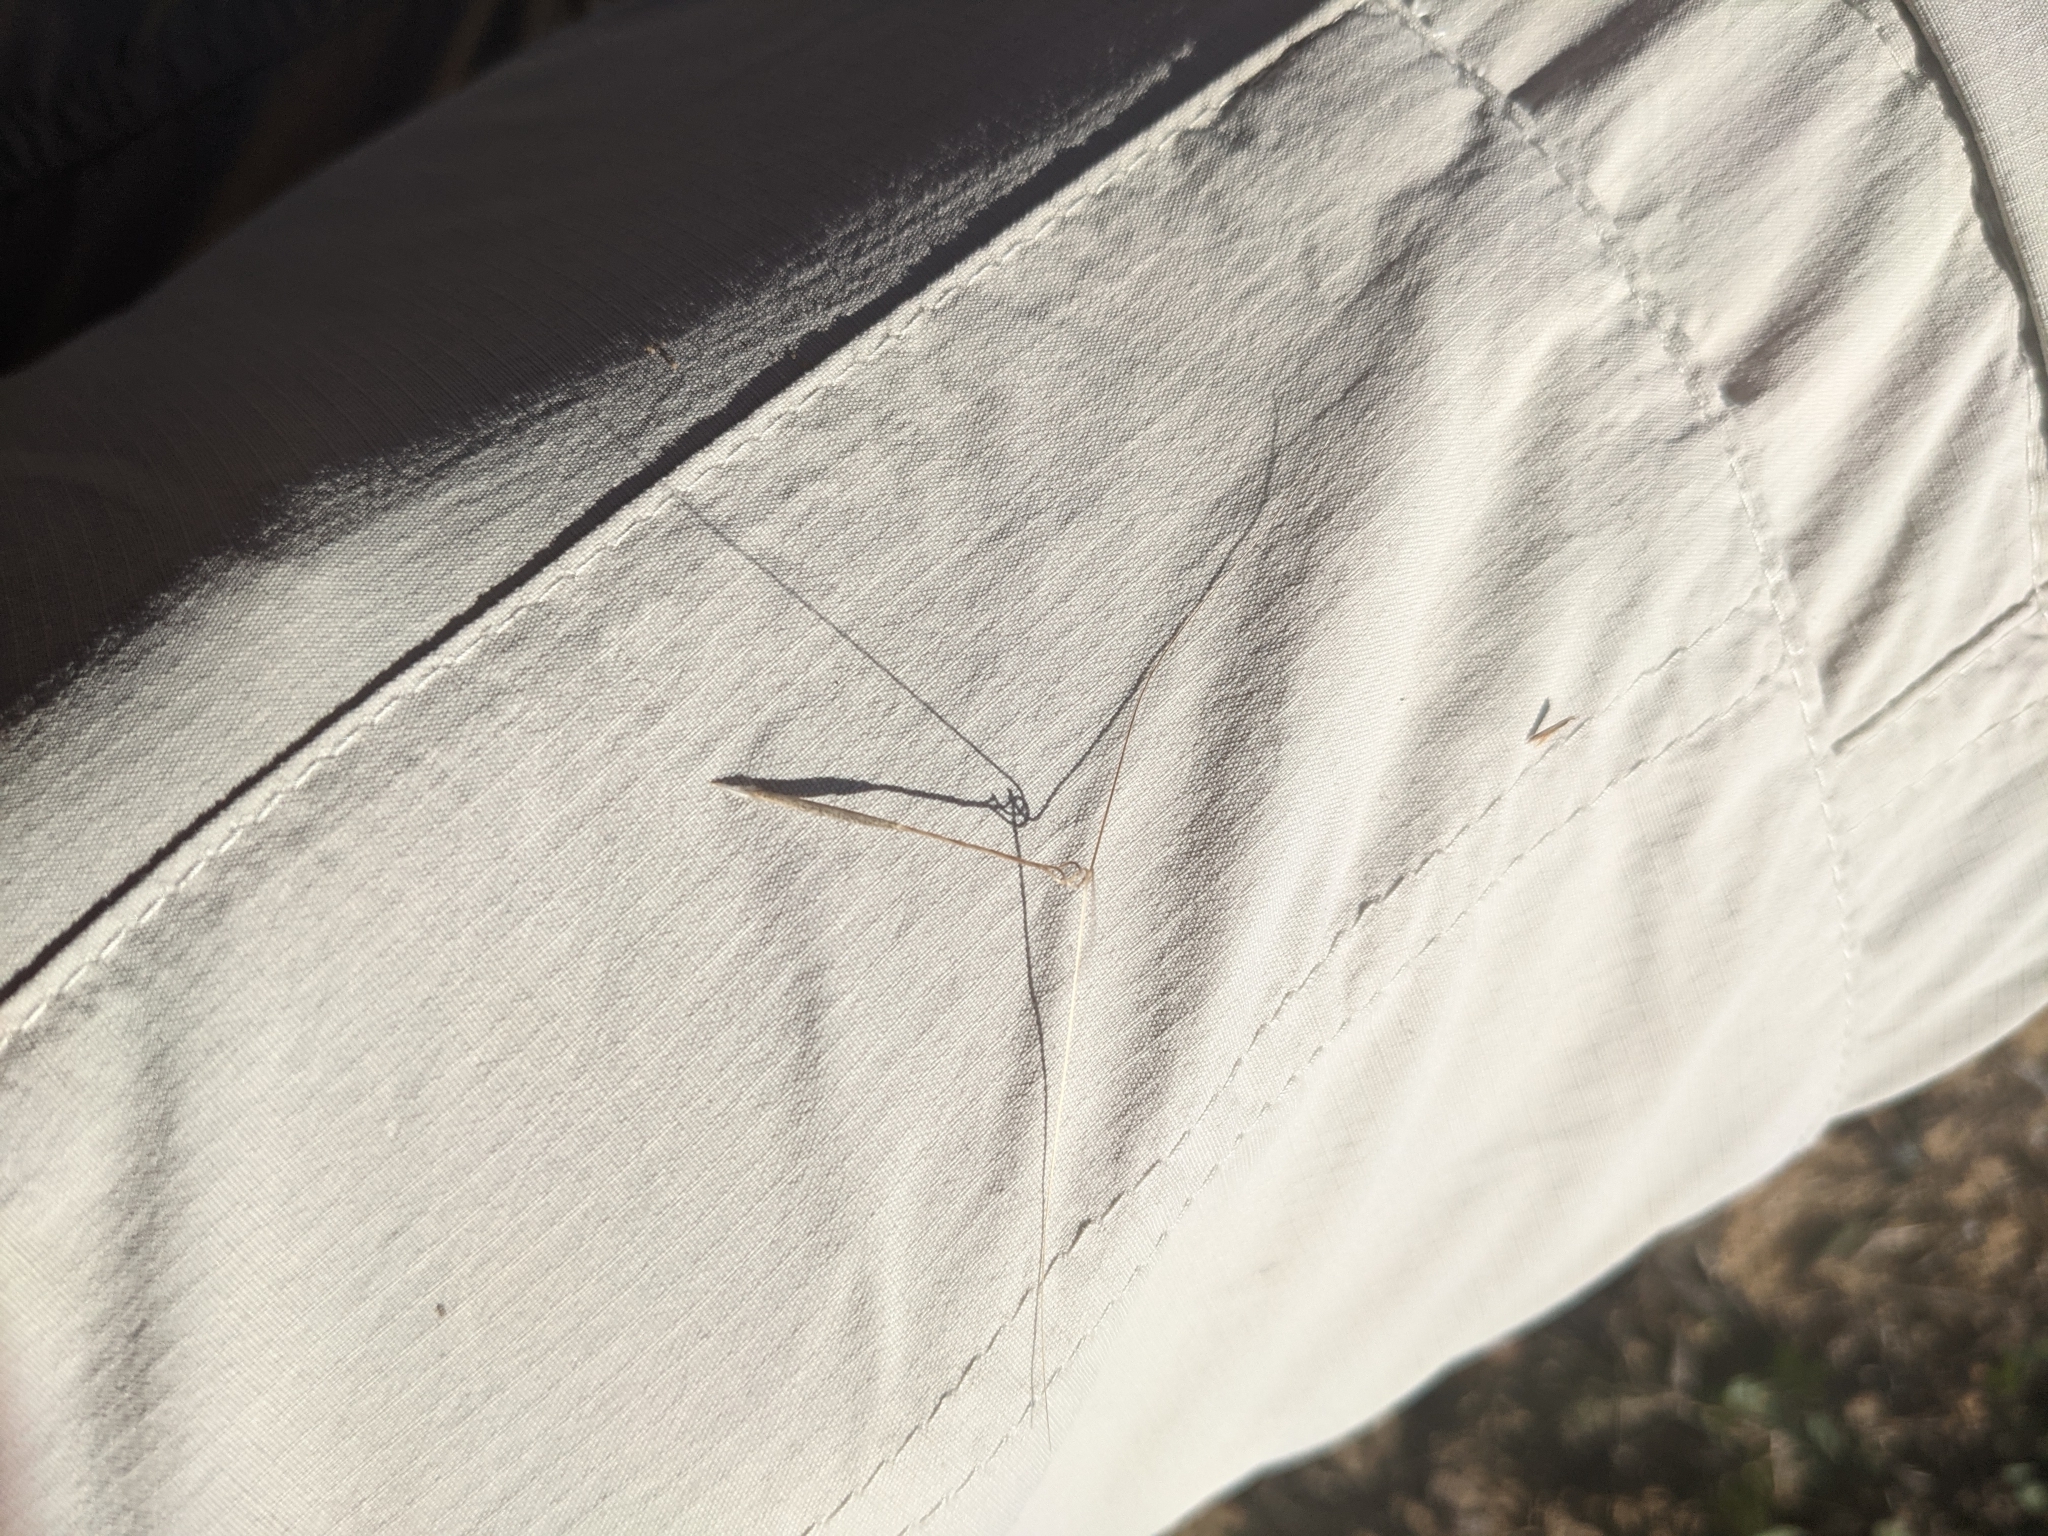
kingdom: Plantae
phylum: Tracheophyta
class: Liliopsida
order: Poales
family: Poaceae
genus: Aristida
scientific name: Aristida tuberculosa
